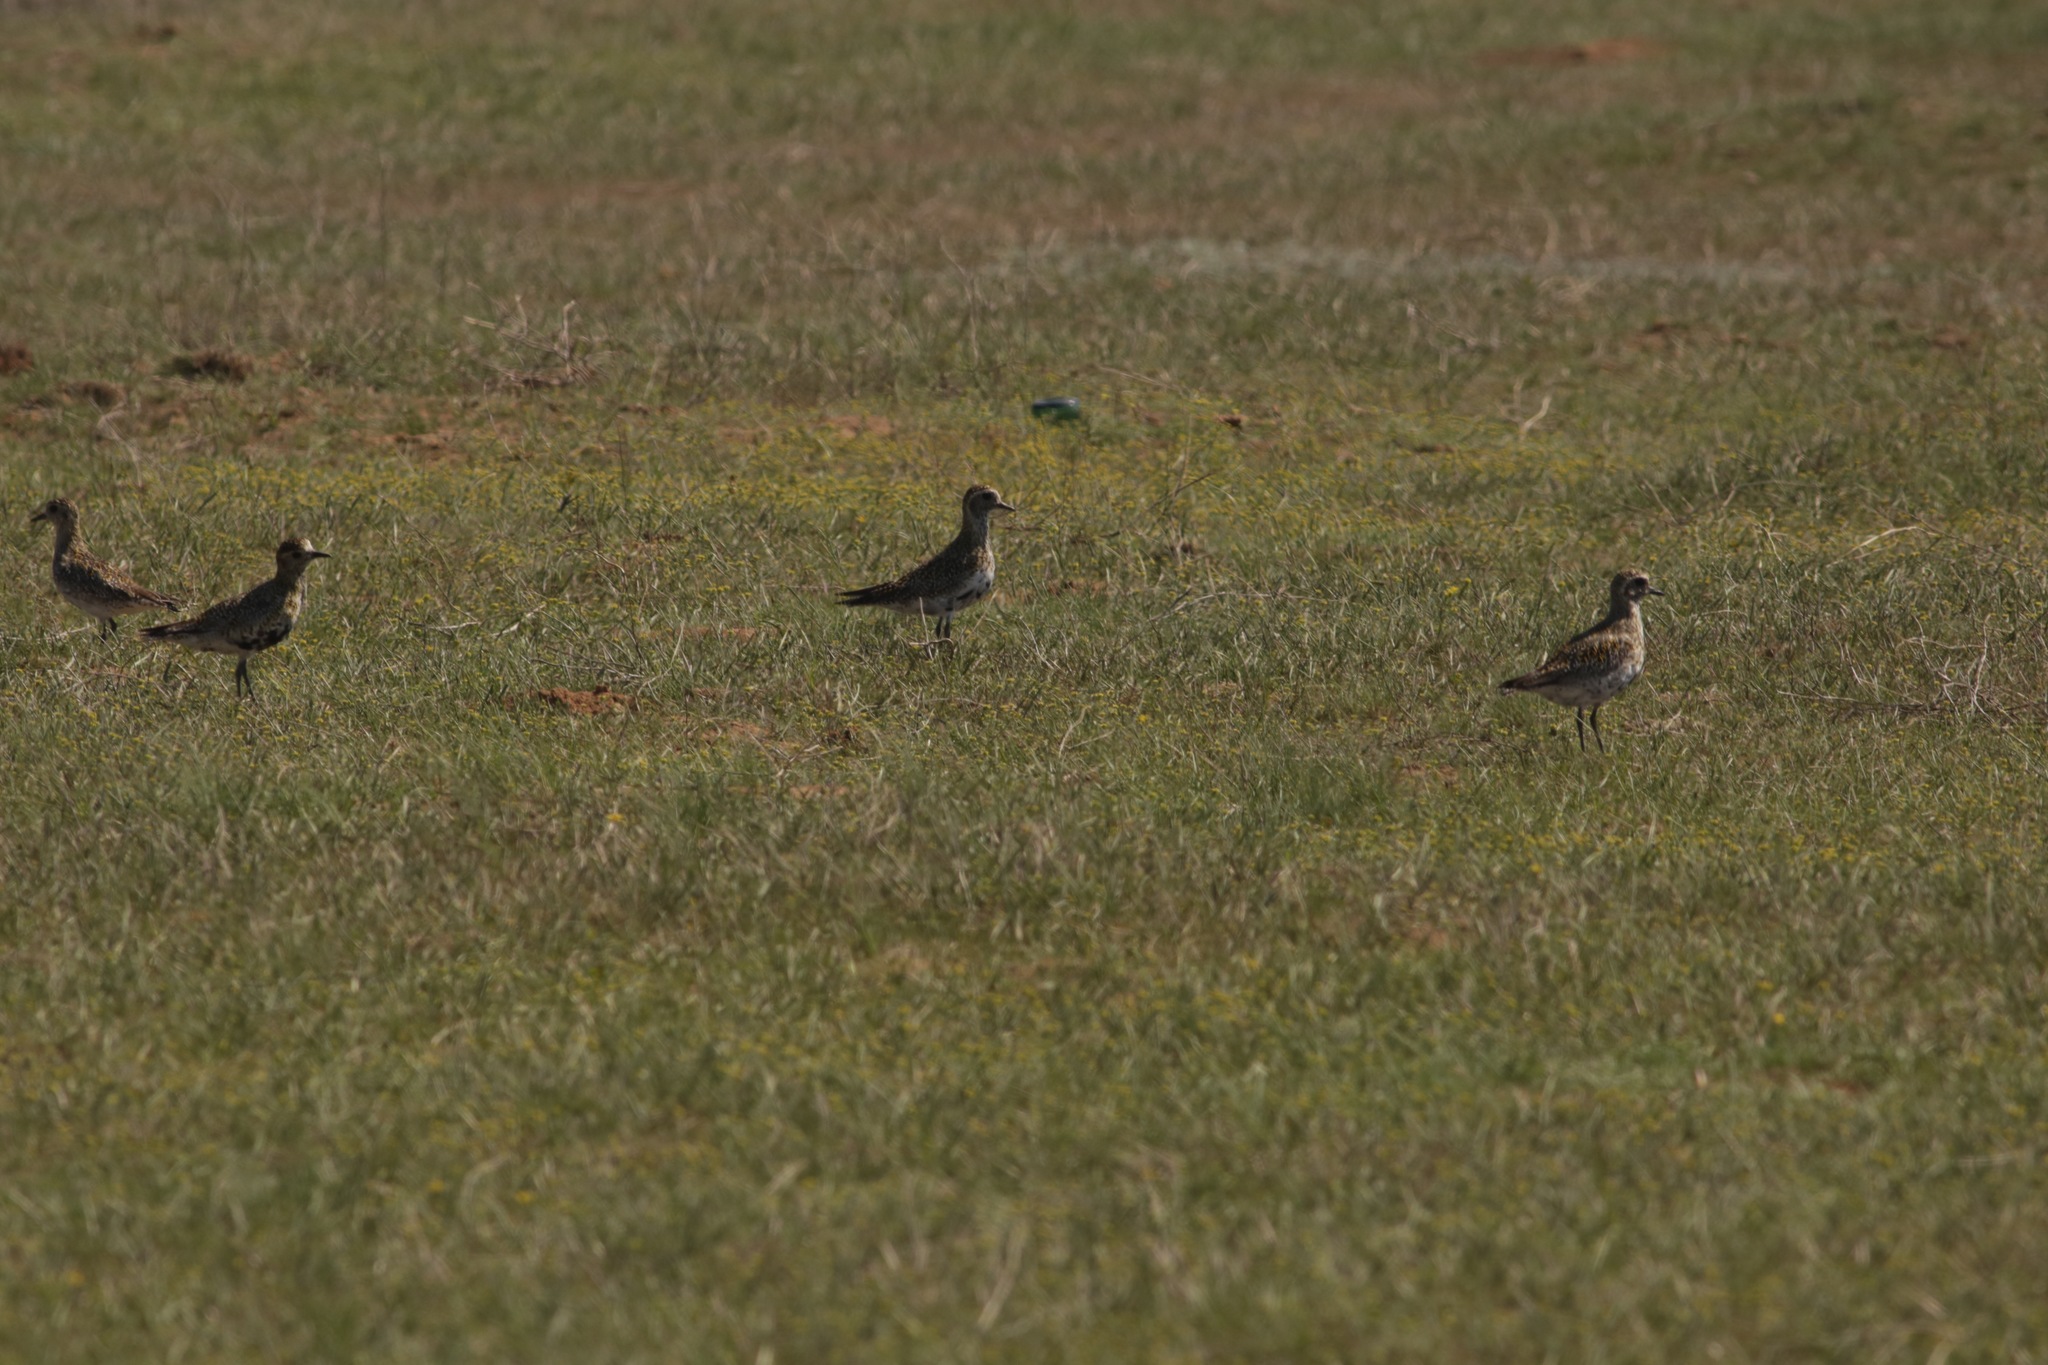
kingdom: Animalia
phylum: Chordata
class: Aves
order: Charadriiformes
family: Charadriidae
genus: Pluvialis
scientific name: Pluvialis apricaria
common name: European golden plover
